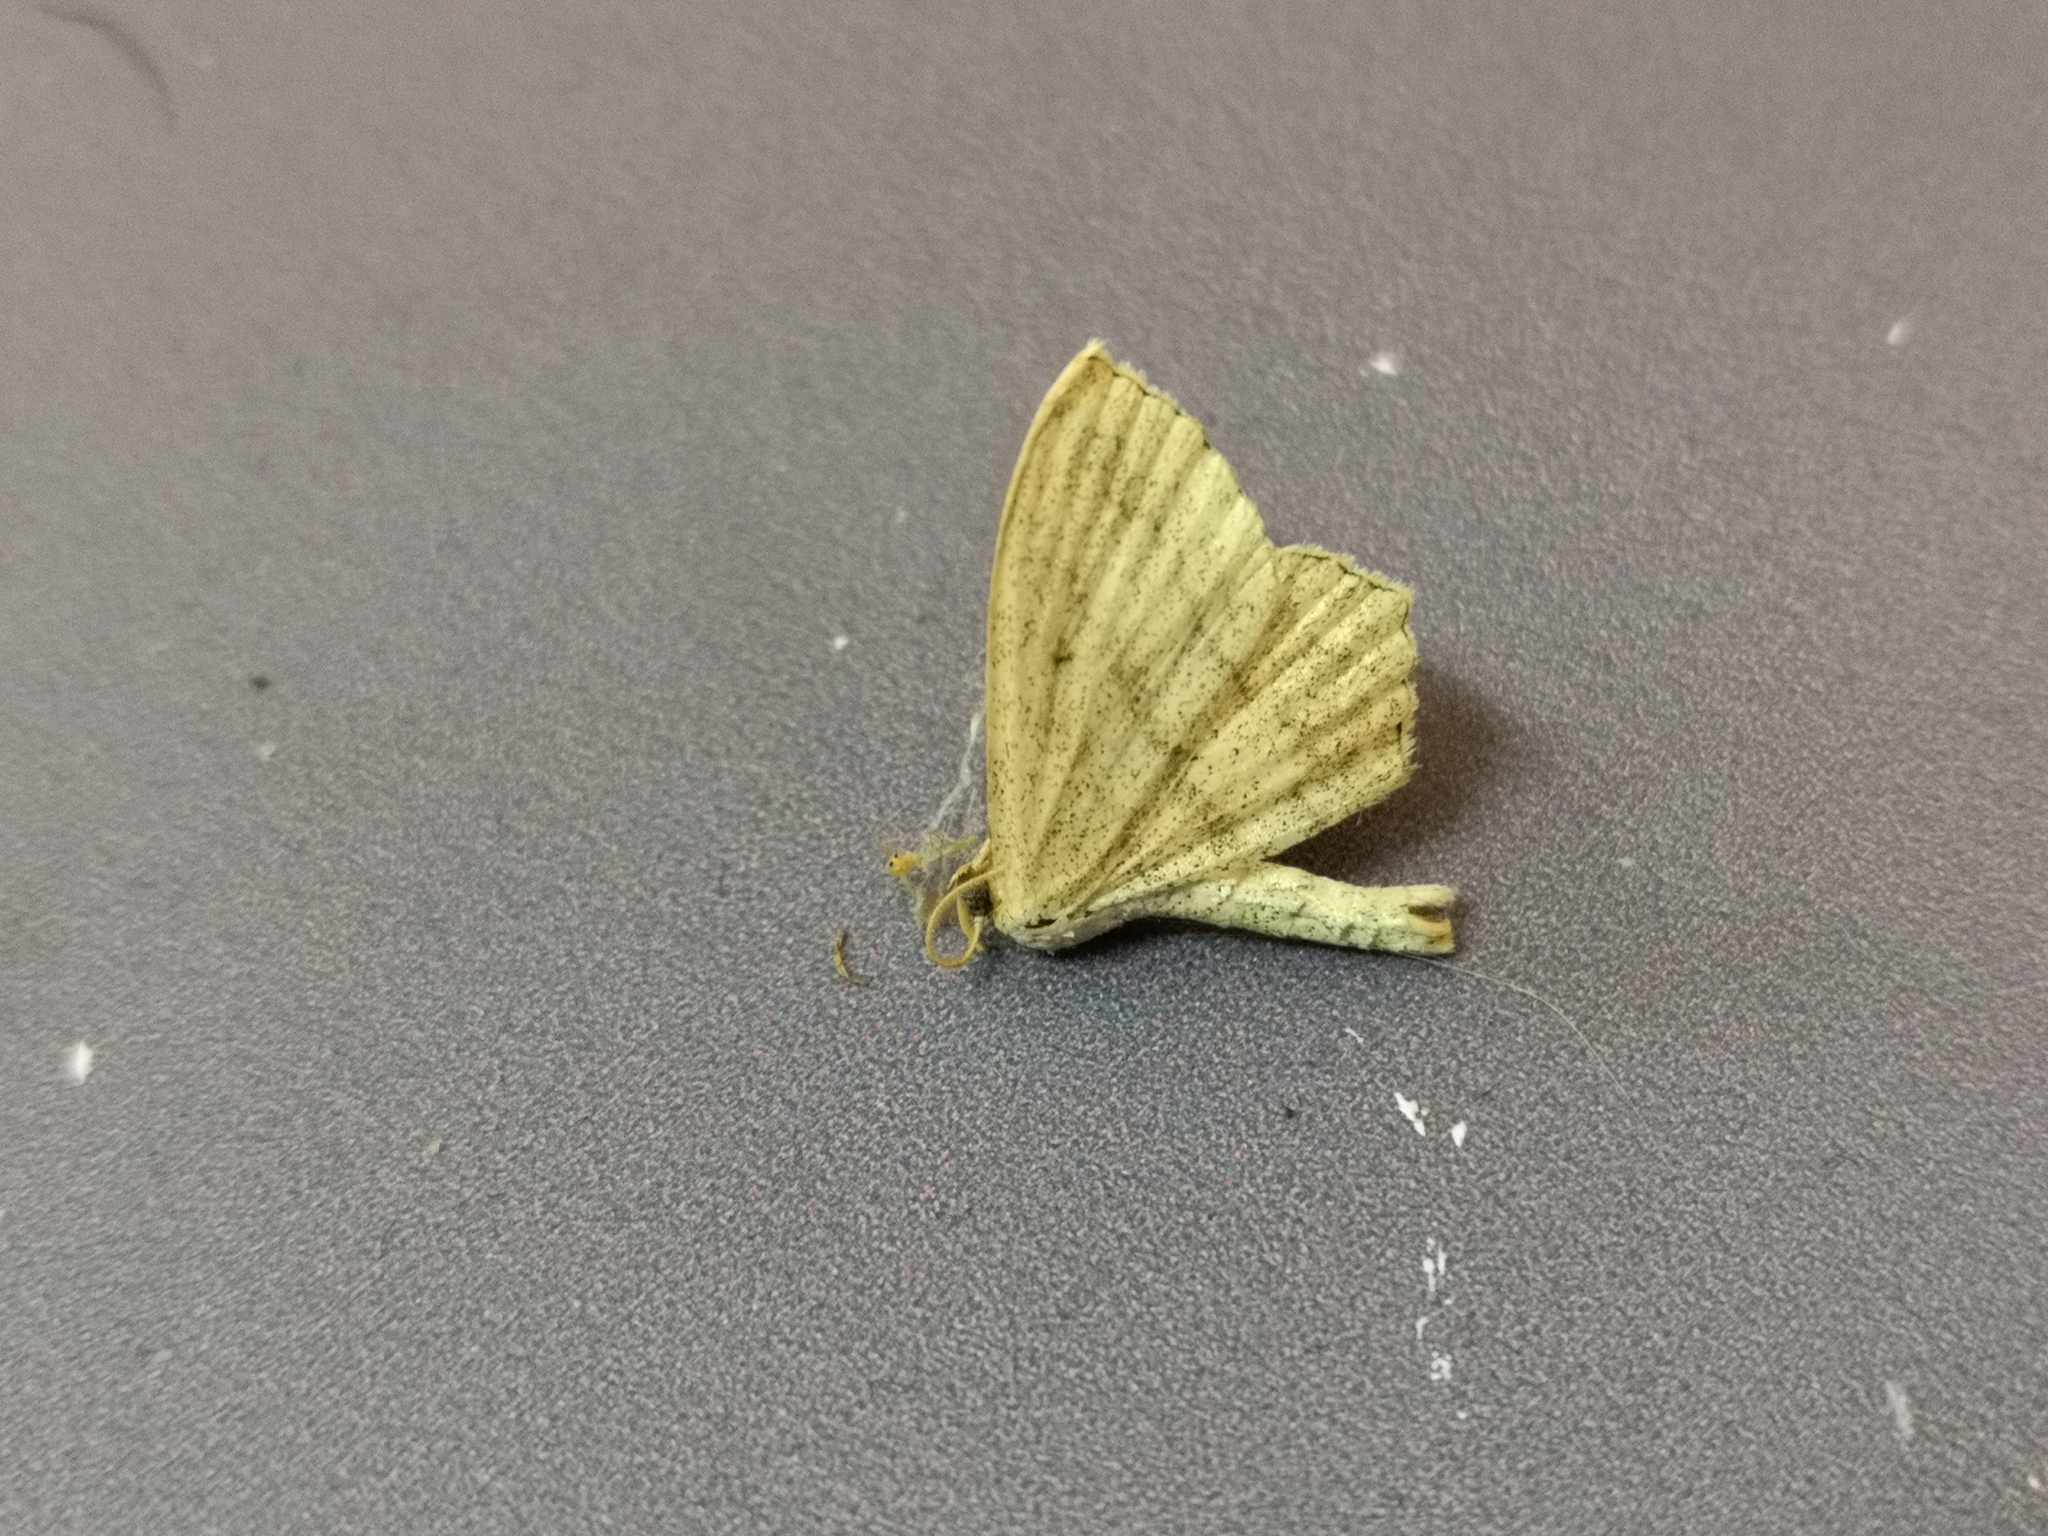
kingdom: Animalia
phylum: Arthropoda
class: Insecta
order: Lepidoptera
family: Geometridae
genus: Scopula
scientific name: Scopula nigropunctata
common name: Sub-angled wave
